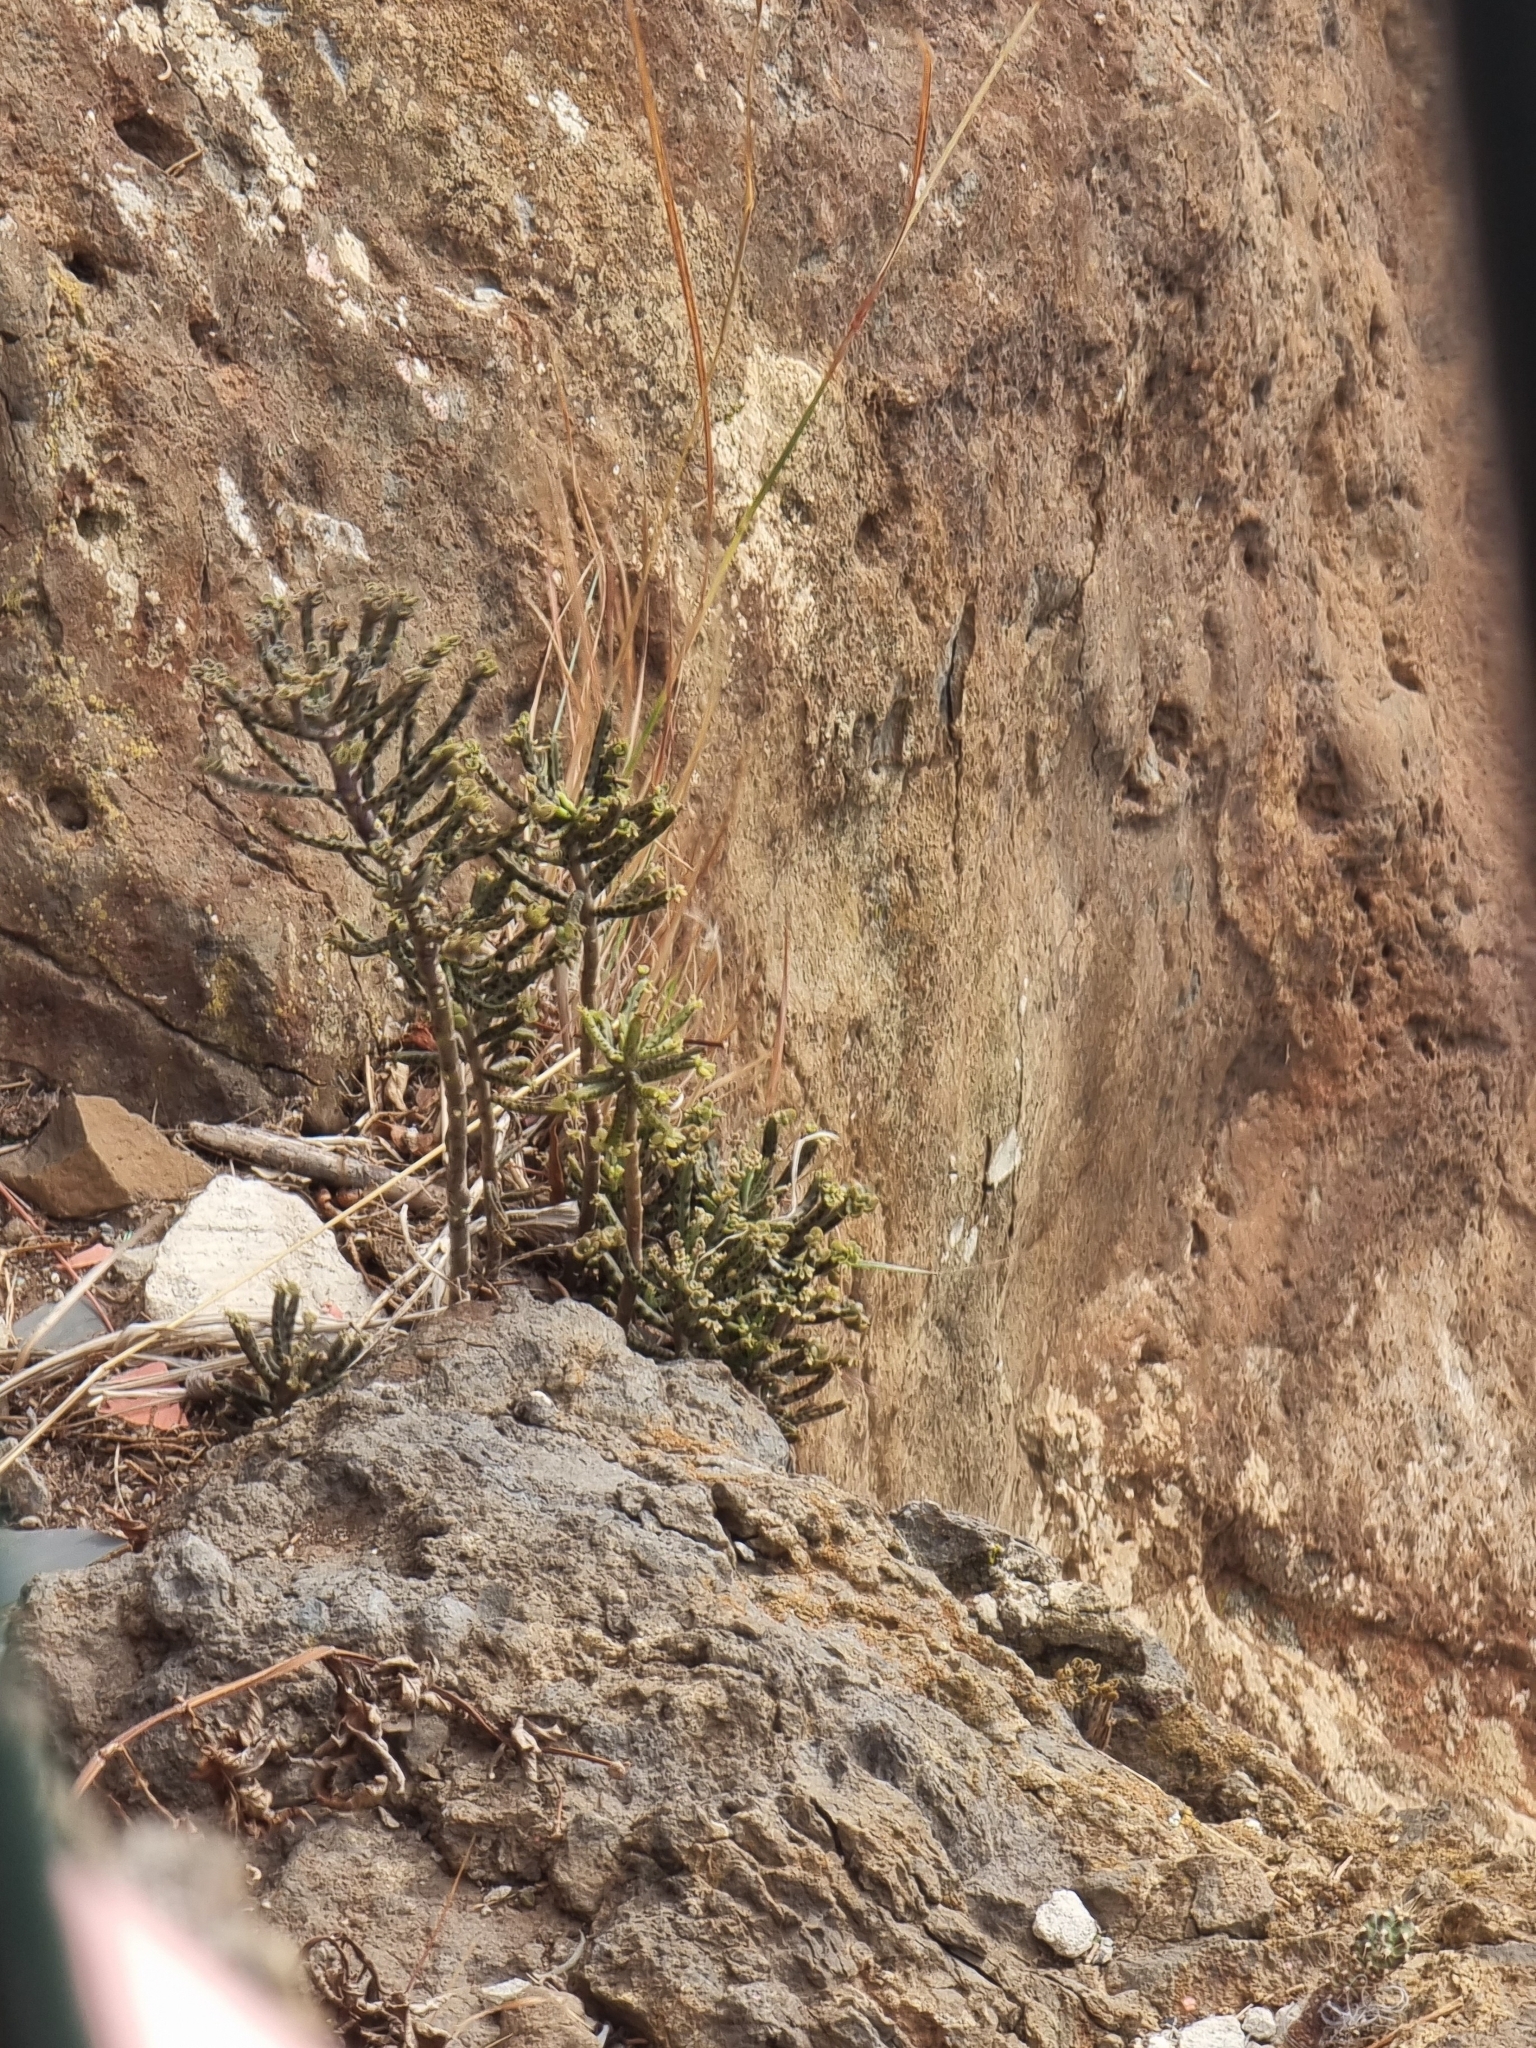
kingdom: Plantae
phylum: Tracheophyta
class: Magnoliopsida
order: Saxifragales
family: Crassulaceae
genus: Kalanchoe
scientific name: Kalanchoe delagoensis
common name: Chandelier plant
